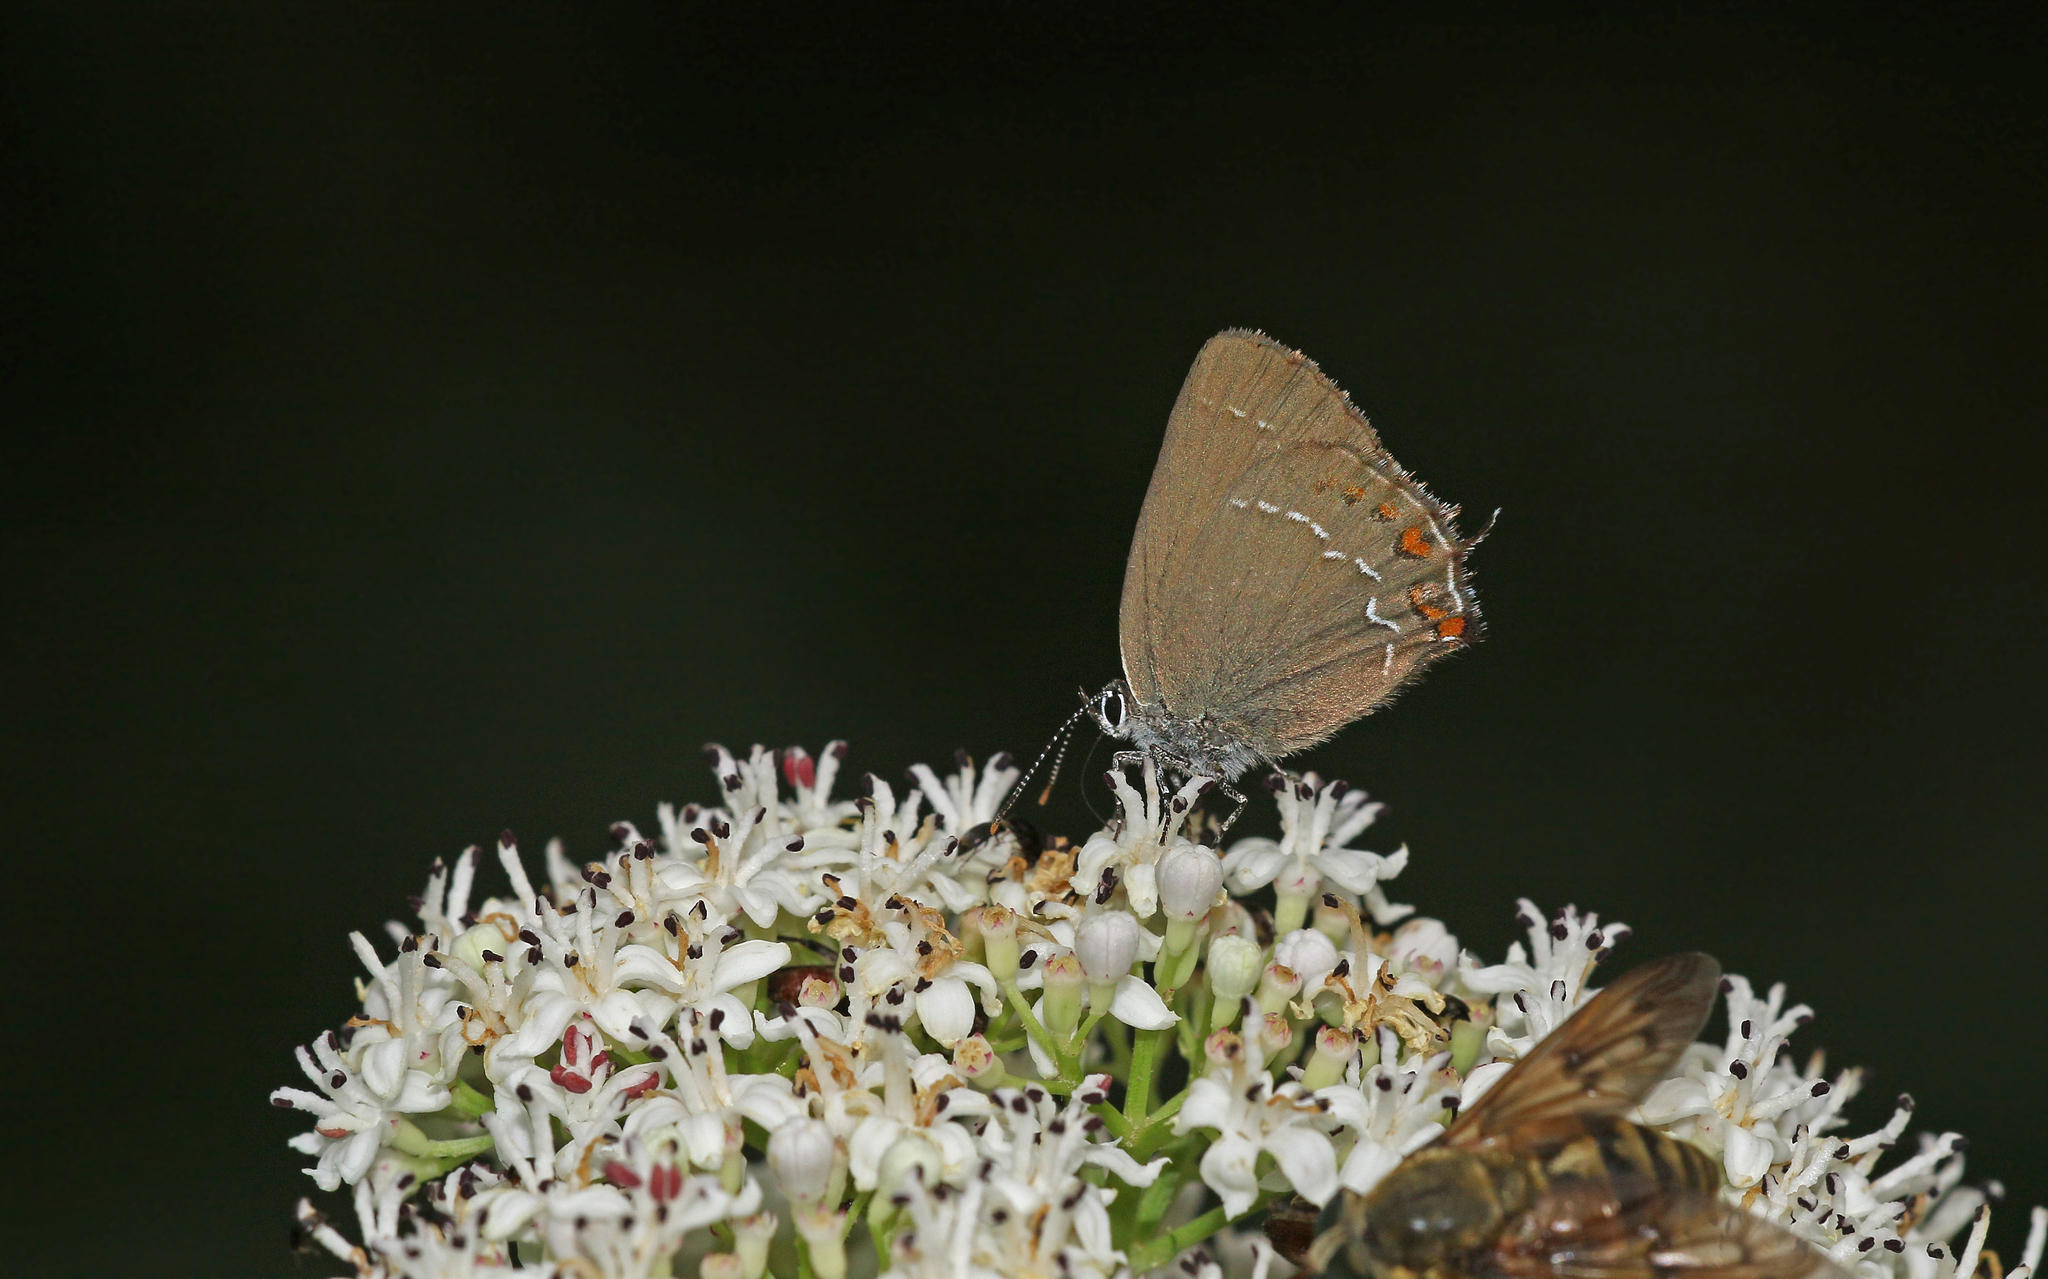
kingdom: Animalia
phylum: Arthropoda
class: Insecta
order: Lepidoptera
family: Lycaenidae
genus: Nordmannia
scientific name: Nordmannia ilicis
